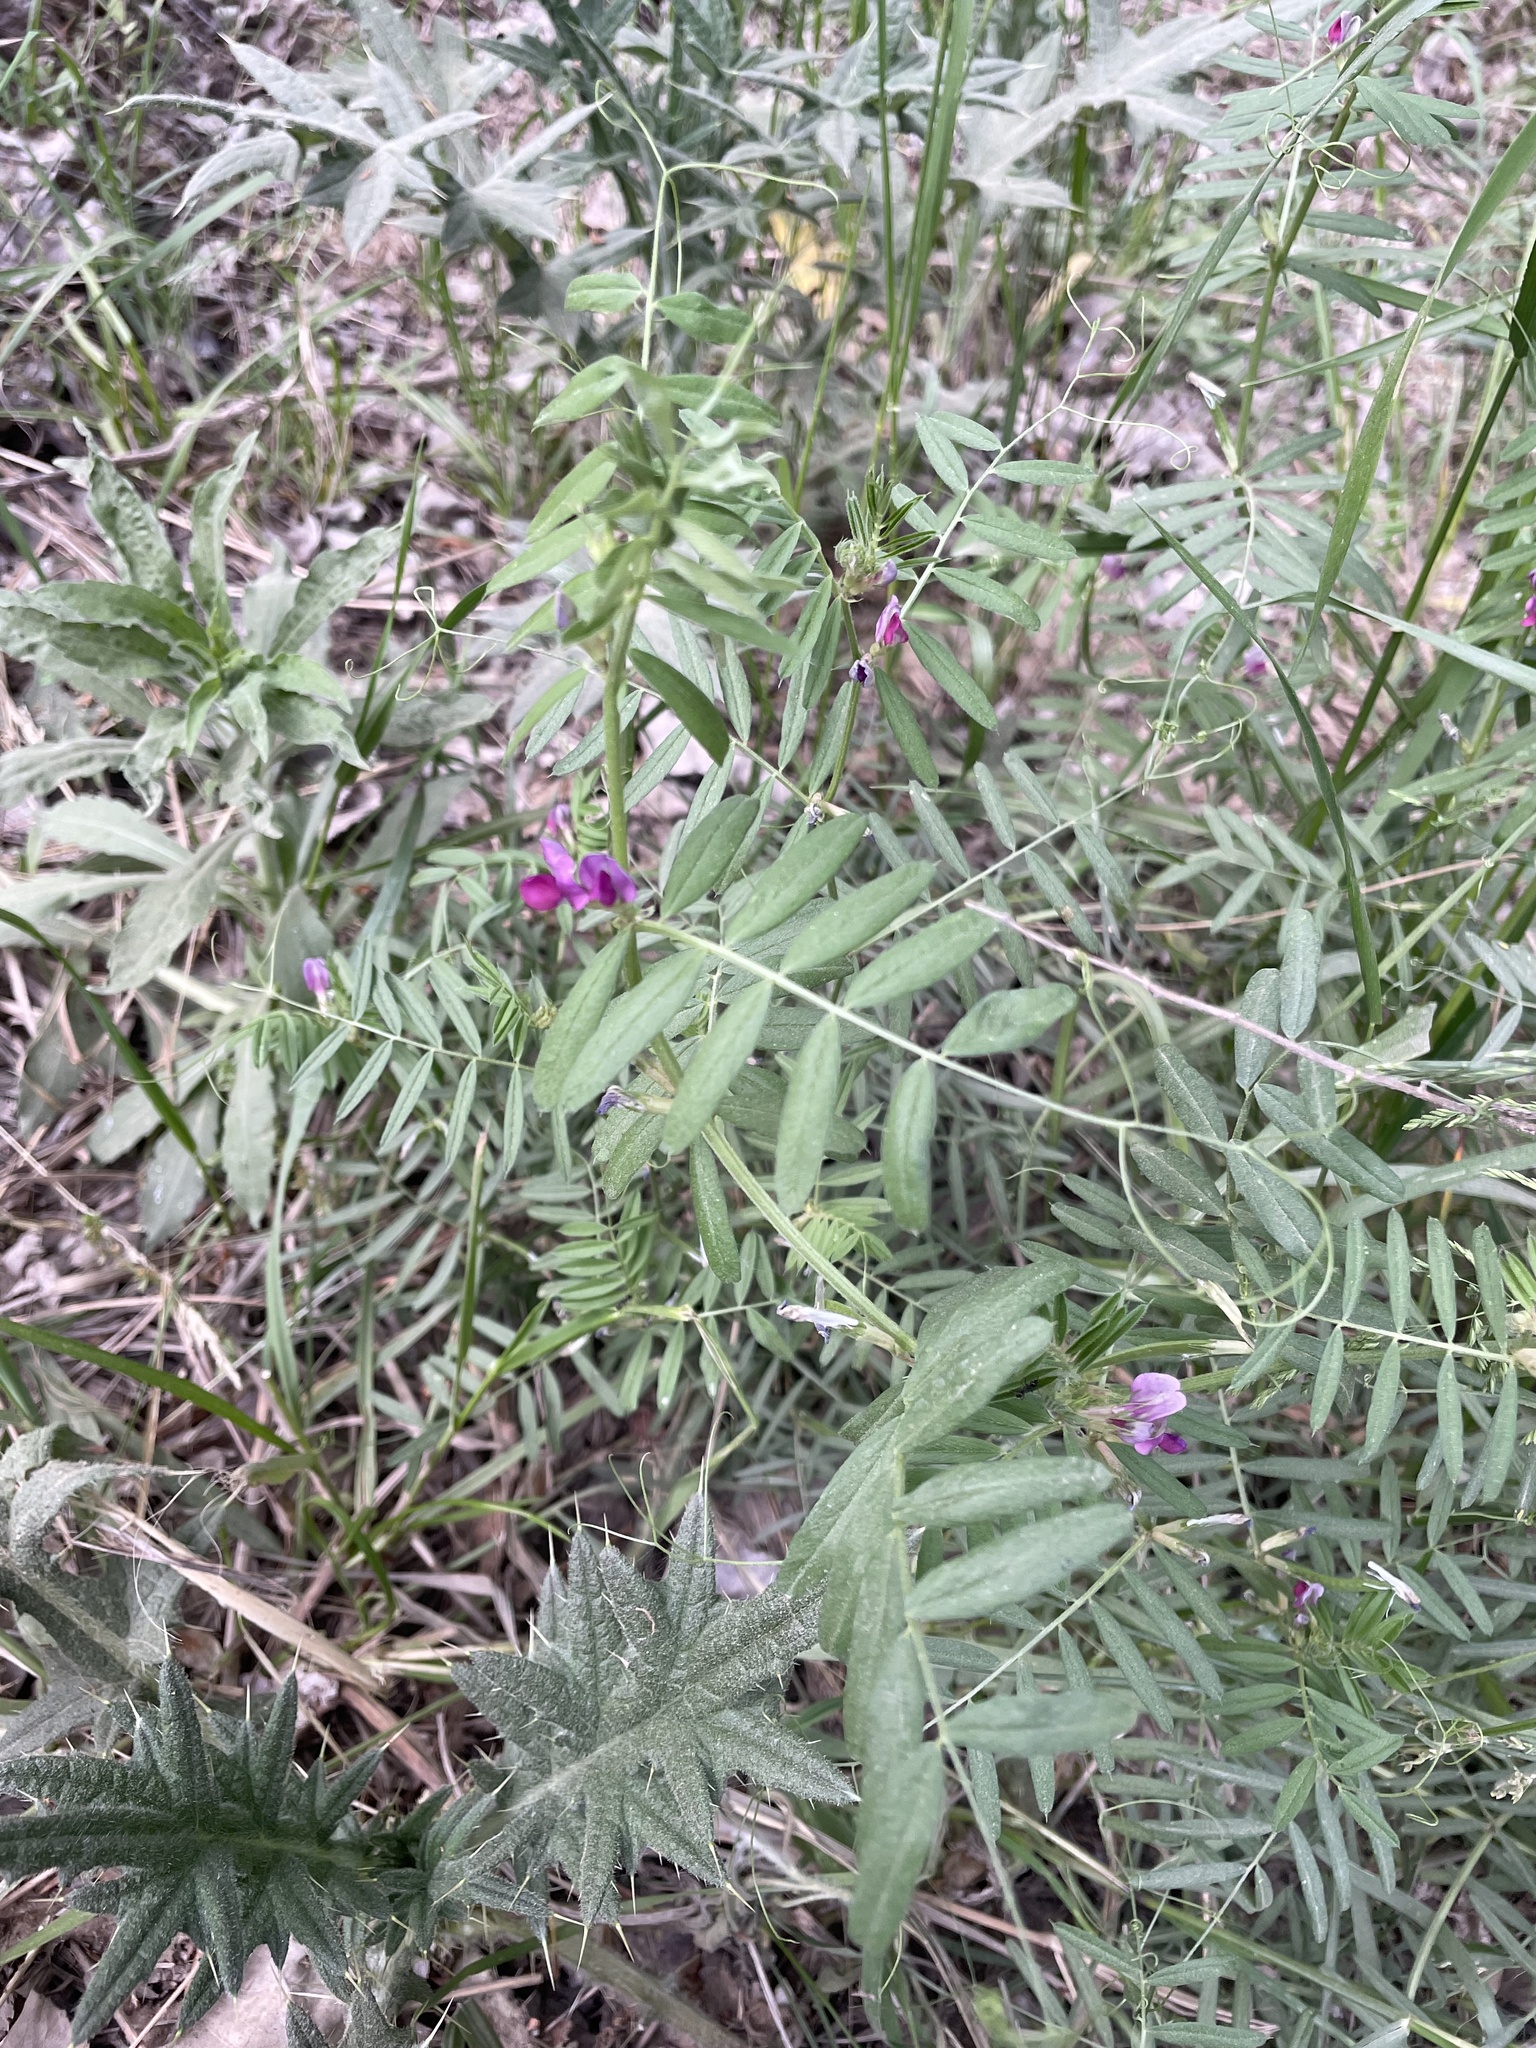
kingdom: Plantae
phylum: Tracheophyta
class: Magnoliopsida
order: Fabales
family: Fabaceae
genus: Vicia
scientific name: Vicia sativa
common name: Garden vetch
